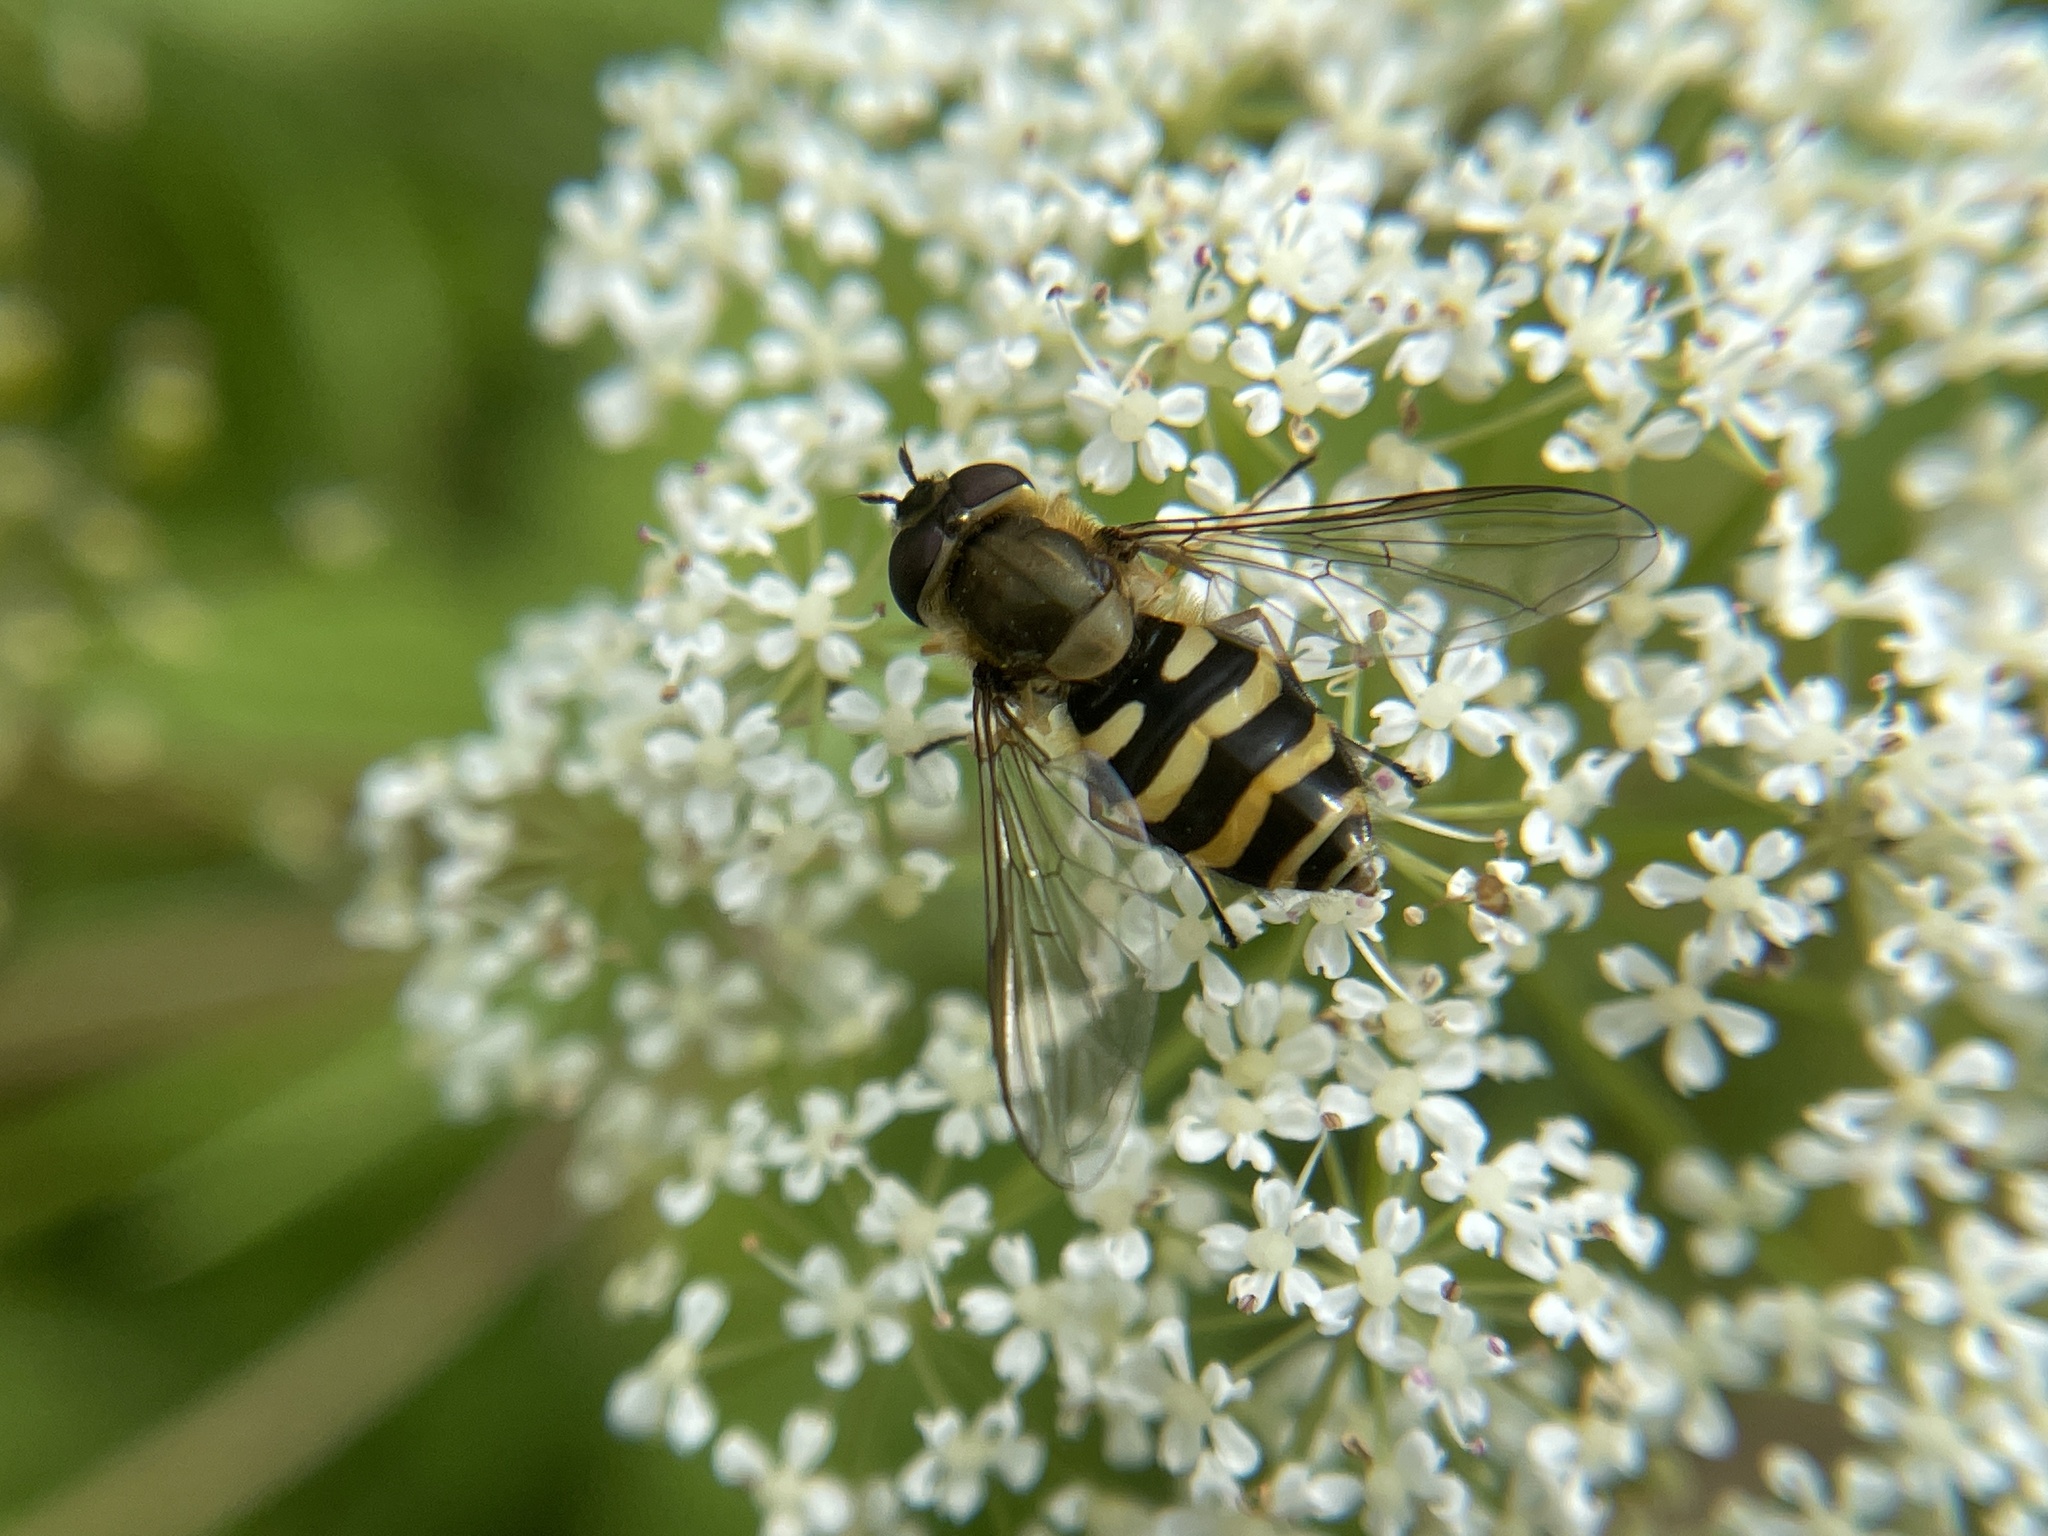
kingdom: Animalia
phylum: Arthropoda
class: Insecta
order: Diptera
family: Syrphidae
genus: Syrphus
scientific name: Syrphus
